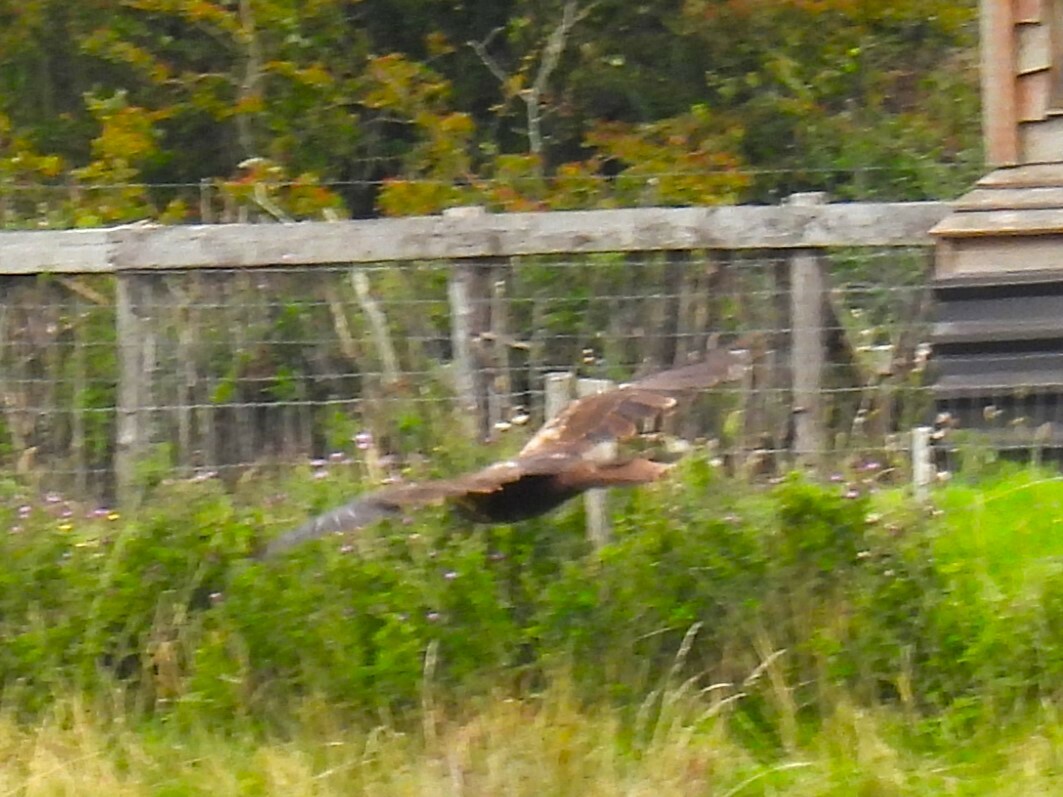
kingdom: Animalia
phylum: Chordata
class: Aves
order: Accipitriformes
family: Accipitridae
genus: Circus
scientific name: Circus aeruginosus
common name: Western marsh harrier
